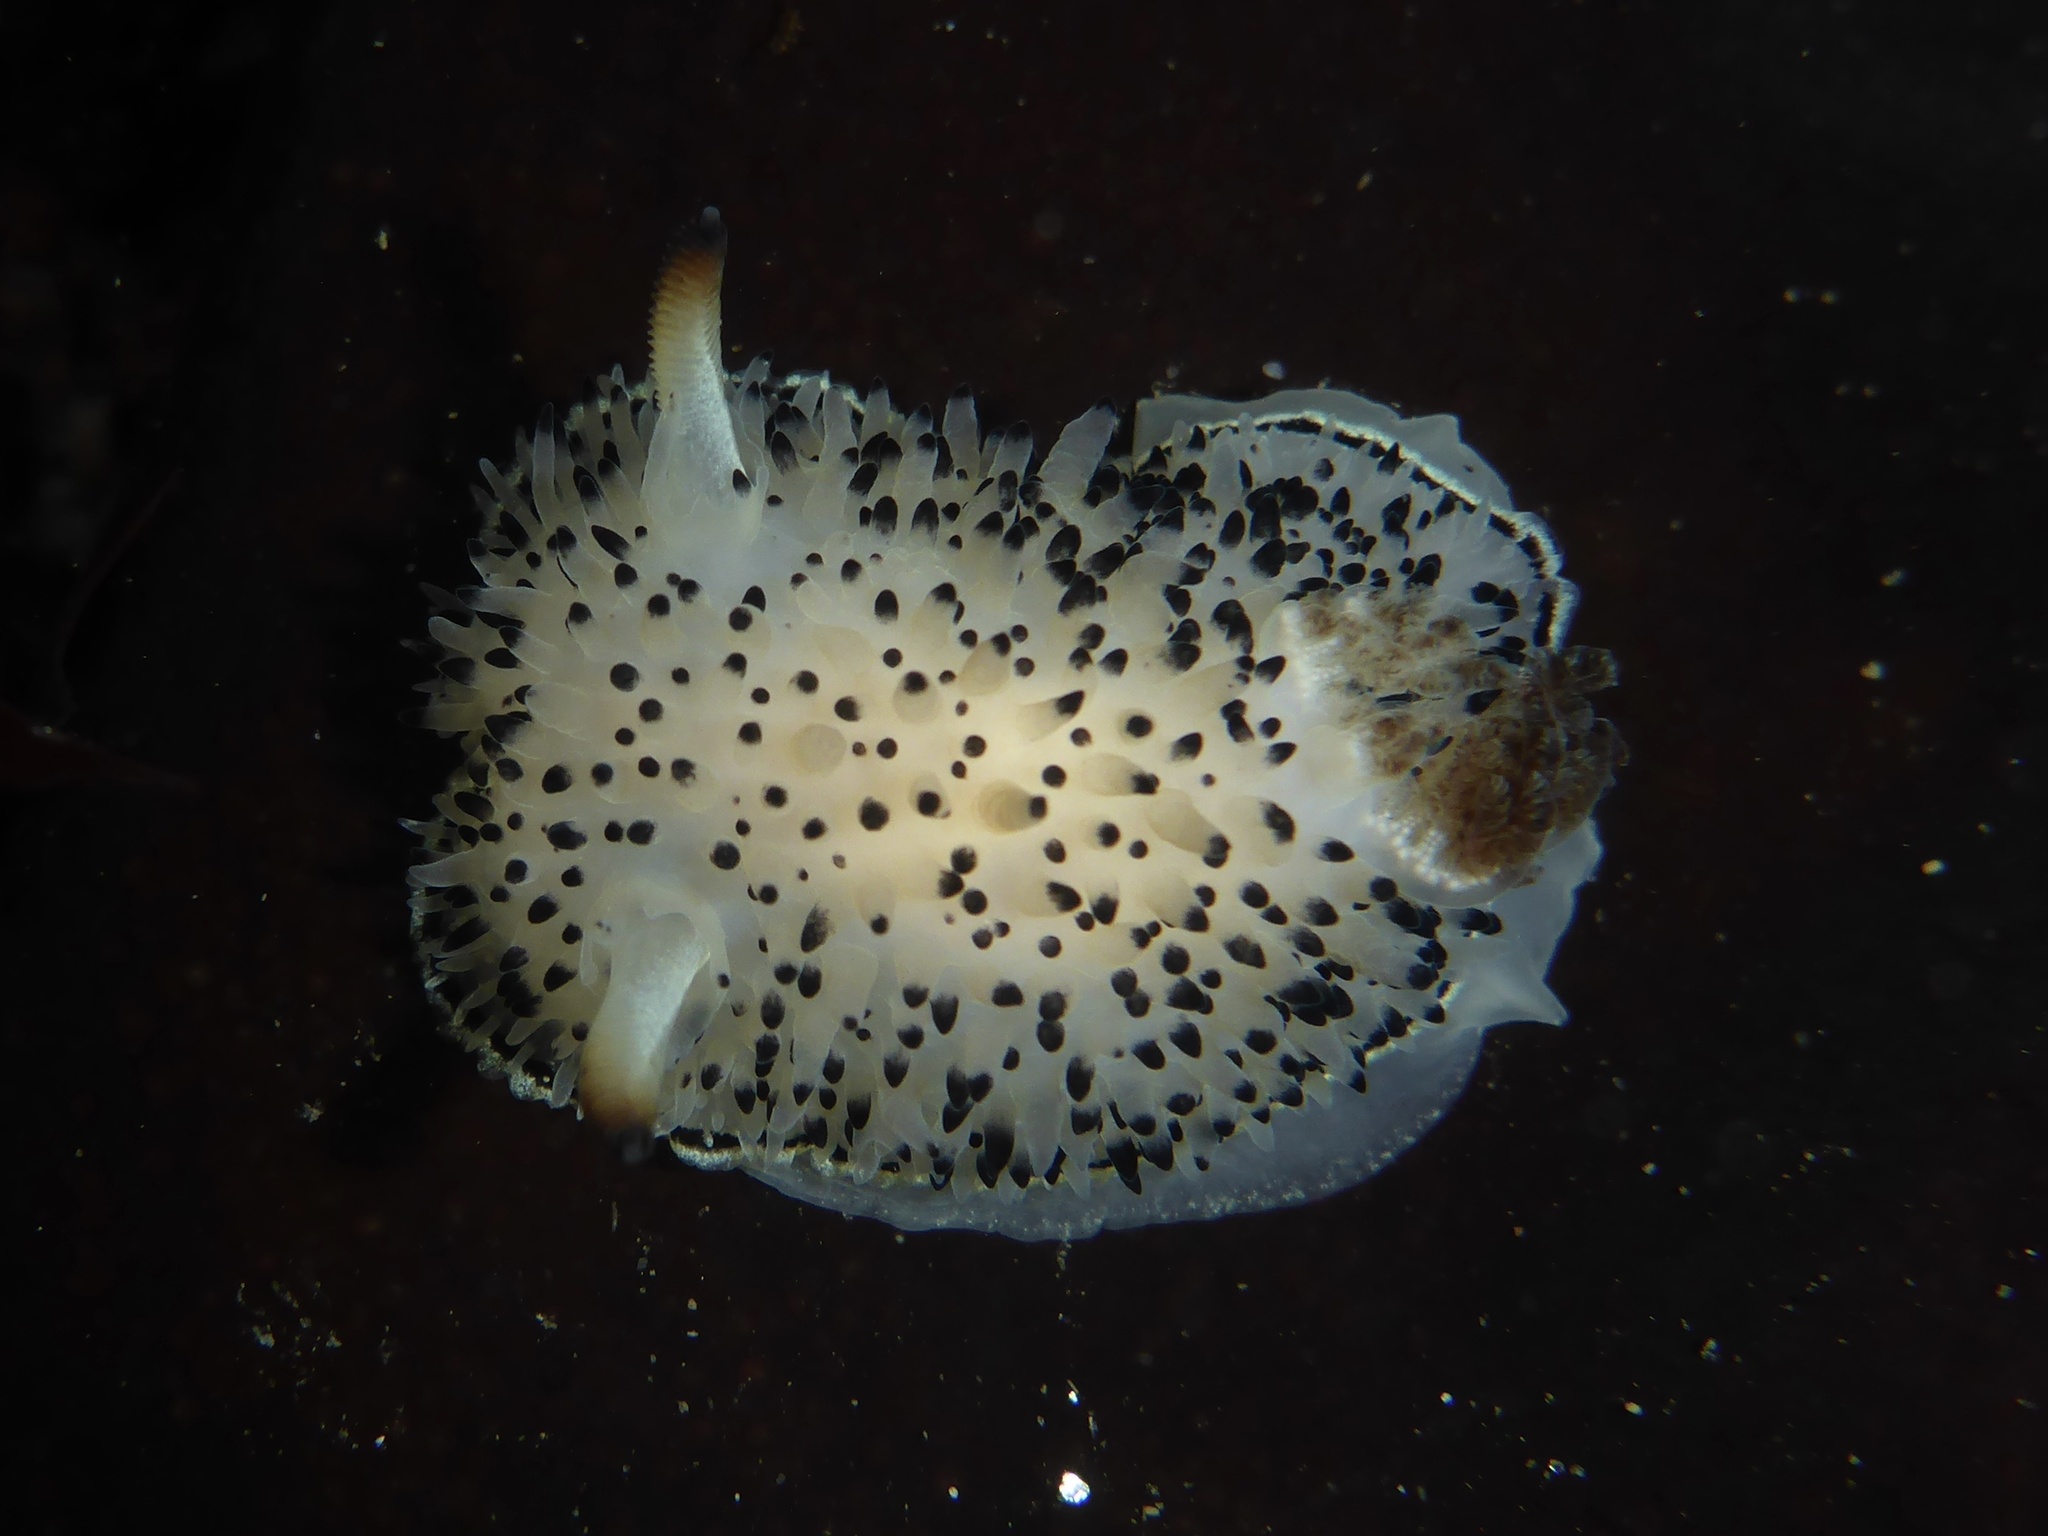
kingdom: Animalia
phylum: Mollusca
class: Gastropoda
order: Nudibranchia
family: Onchidorididae
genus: Acanthodoris
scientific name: Acanthodoris rhodoceras
